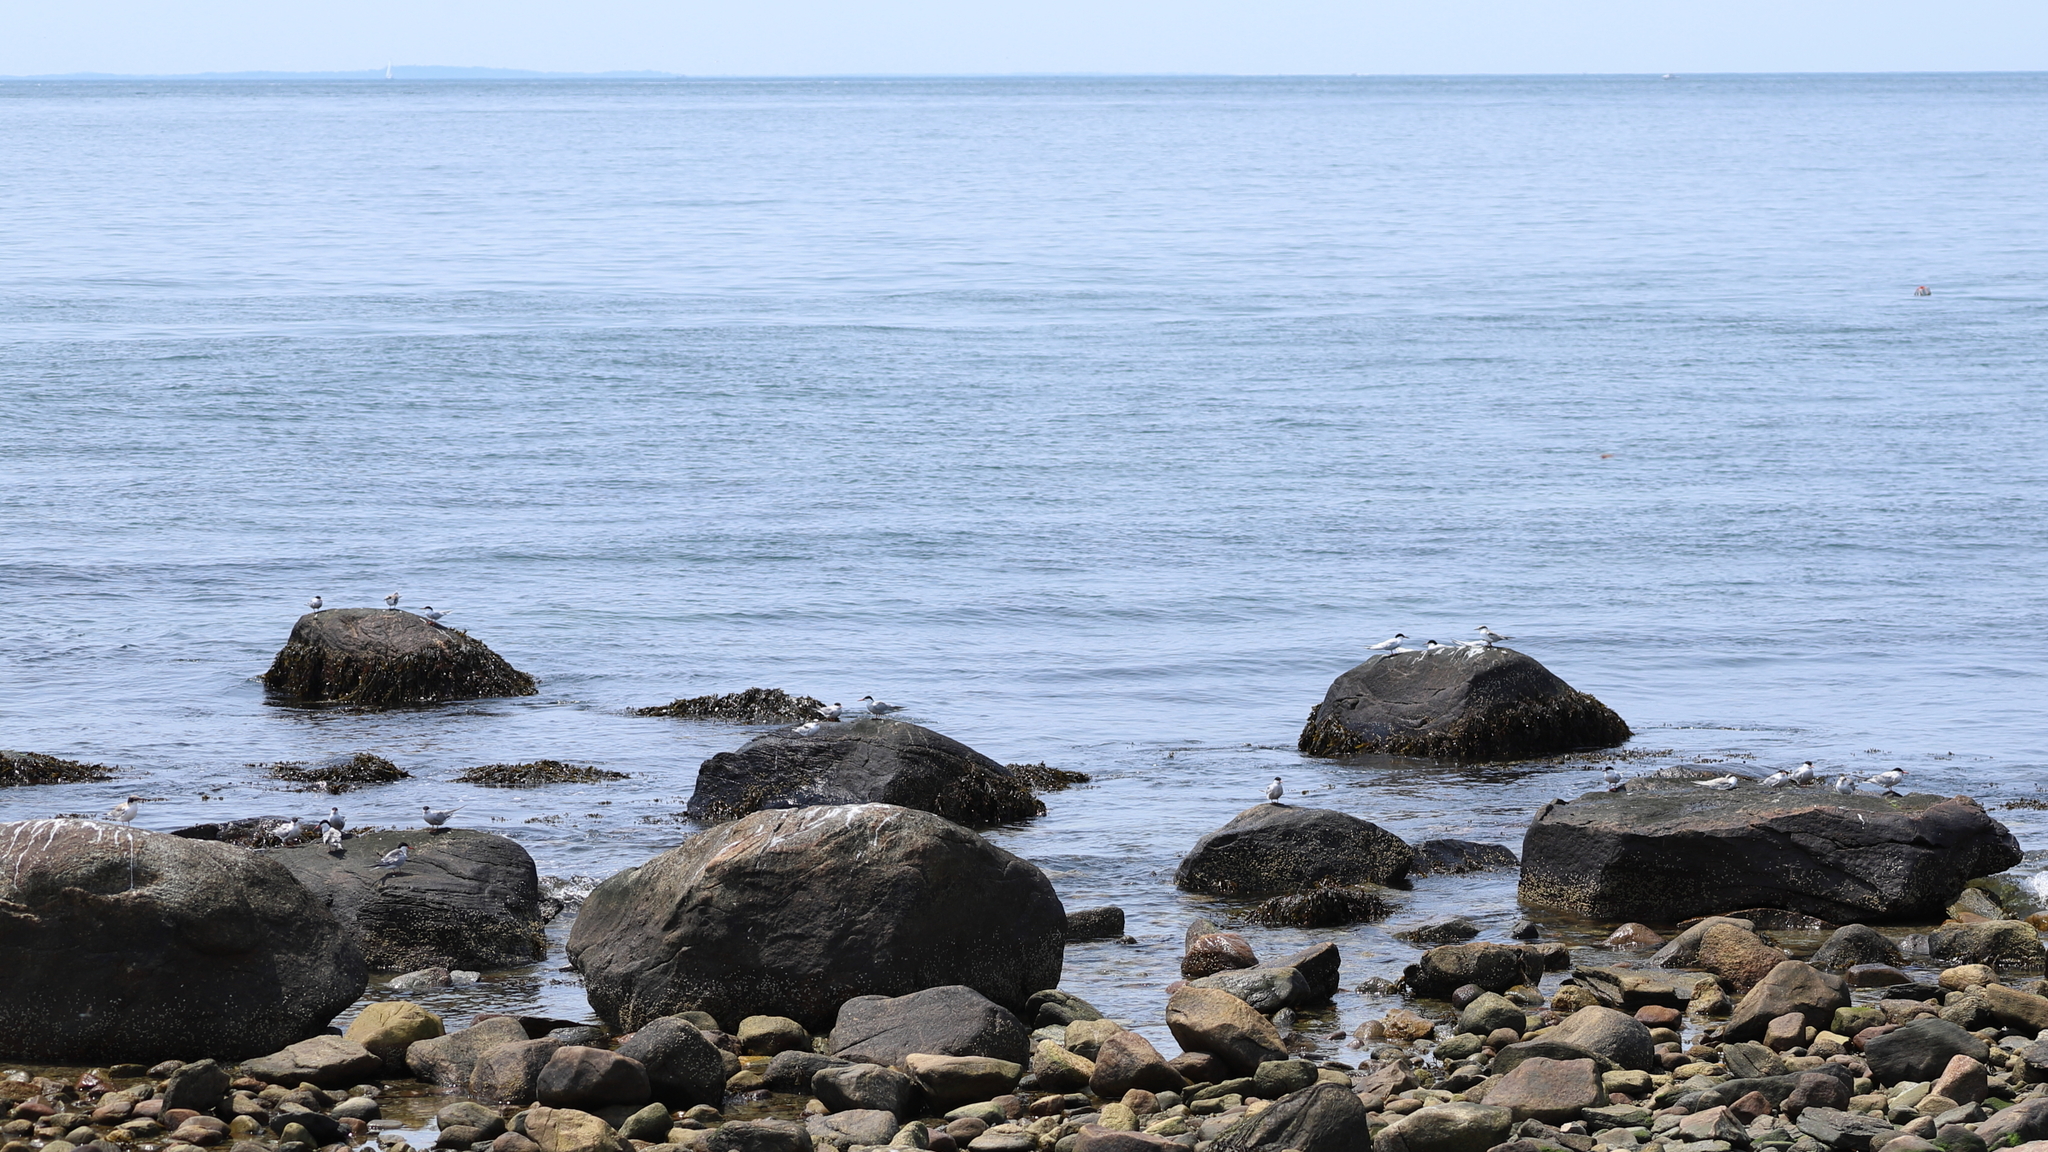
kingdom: Animalia
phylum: Chordata
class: Aves
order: Charadriiformes
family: Laridae
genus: Sterna
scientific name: Sterna hirundo
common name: Common tern
